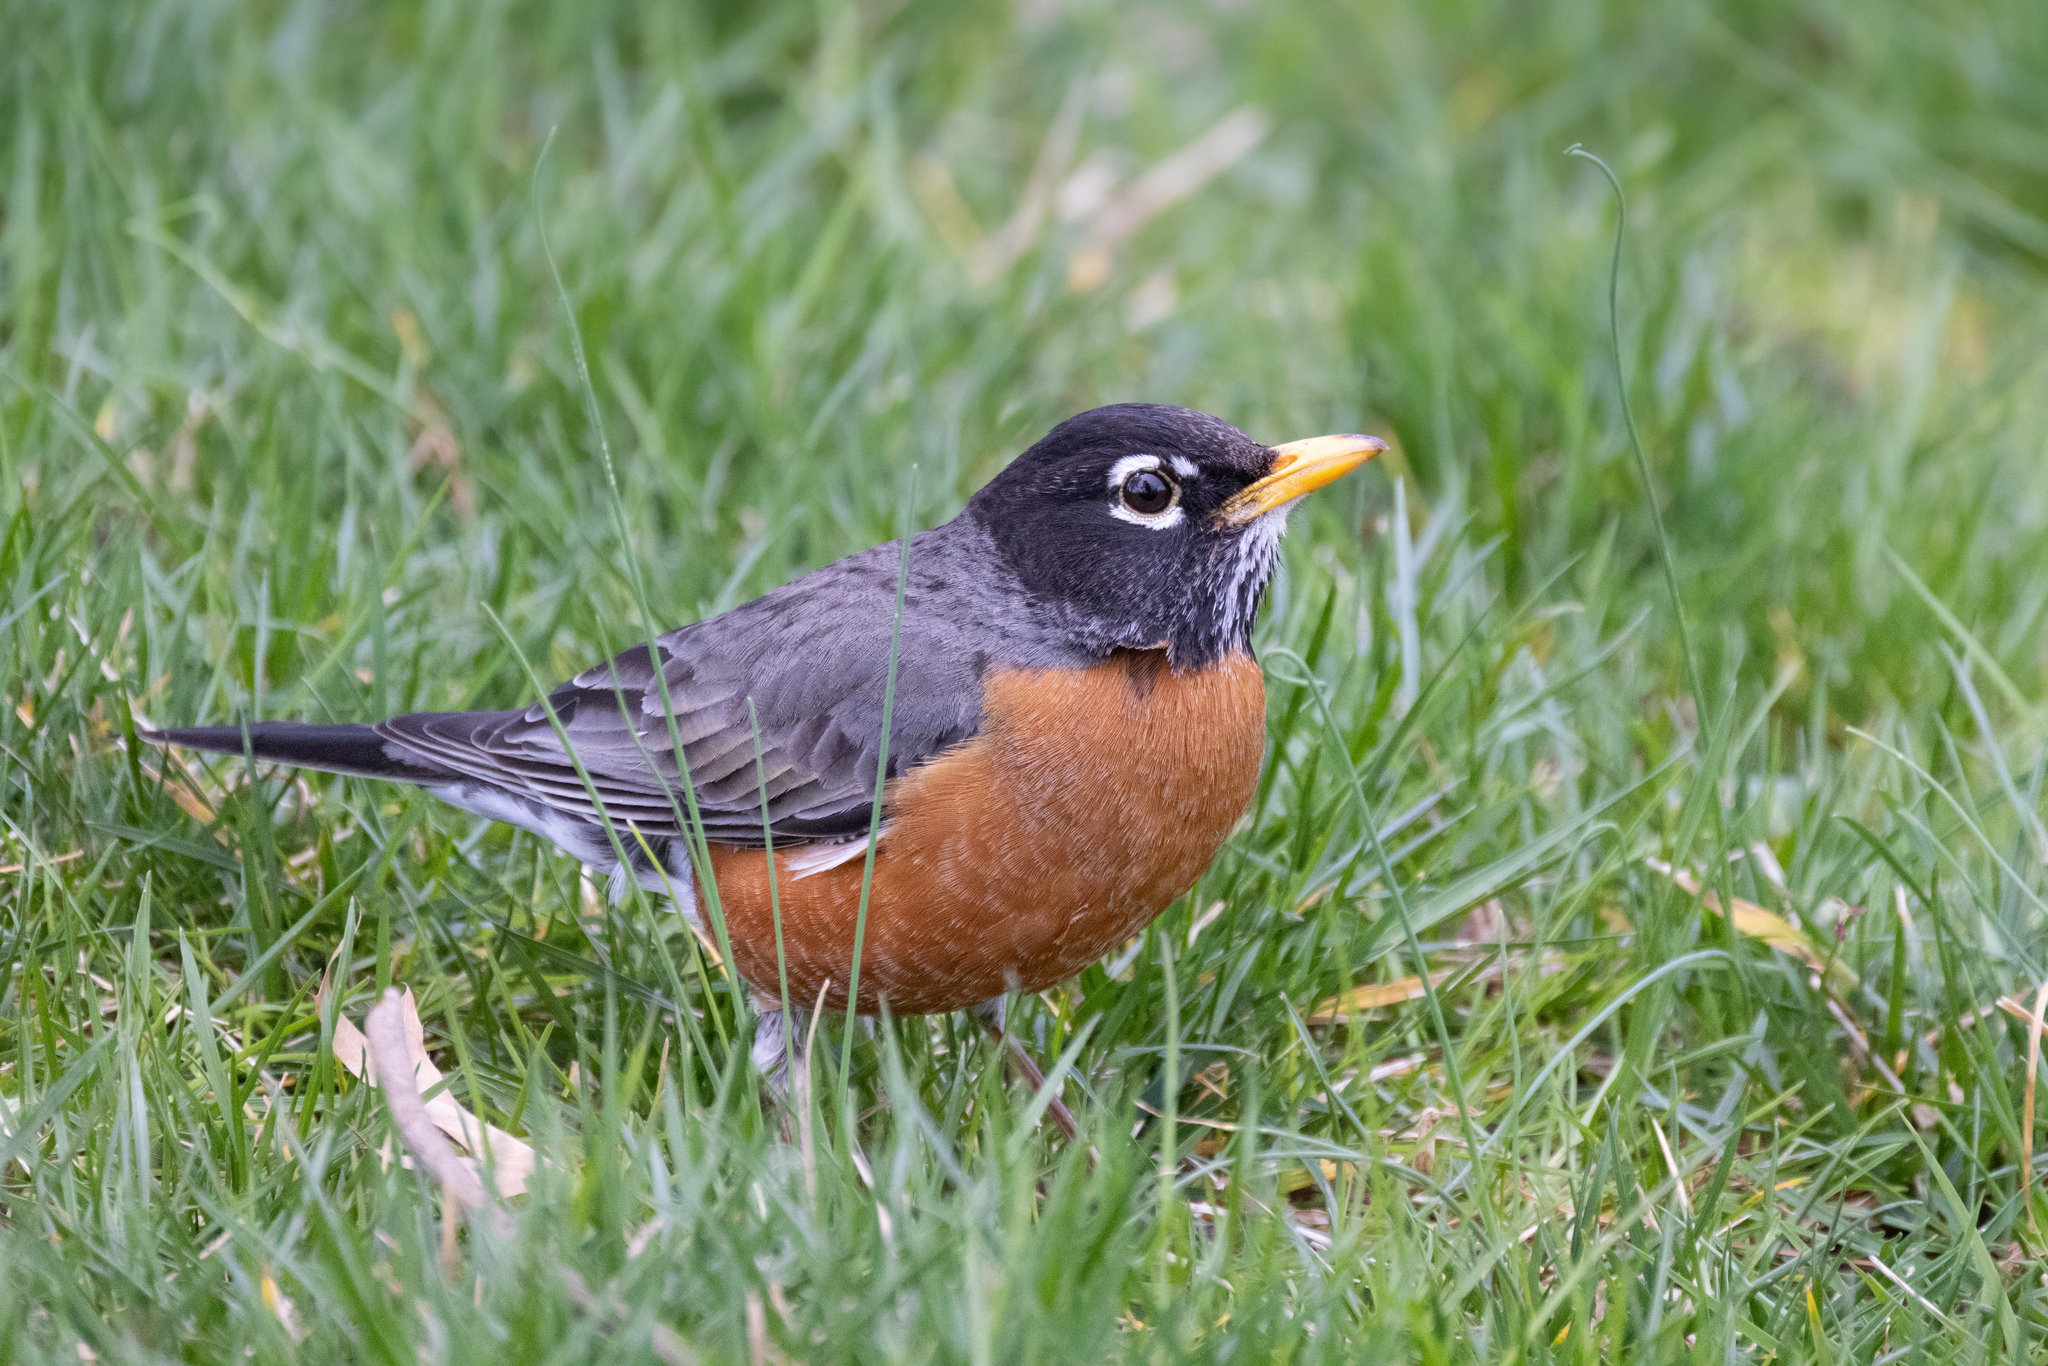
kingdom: Animalia
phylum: Chordata
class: Aves
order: Passeriformes
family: Turdidae
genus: Turdus
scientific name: Turdus migratorius
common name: American robin
